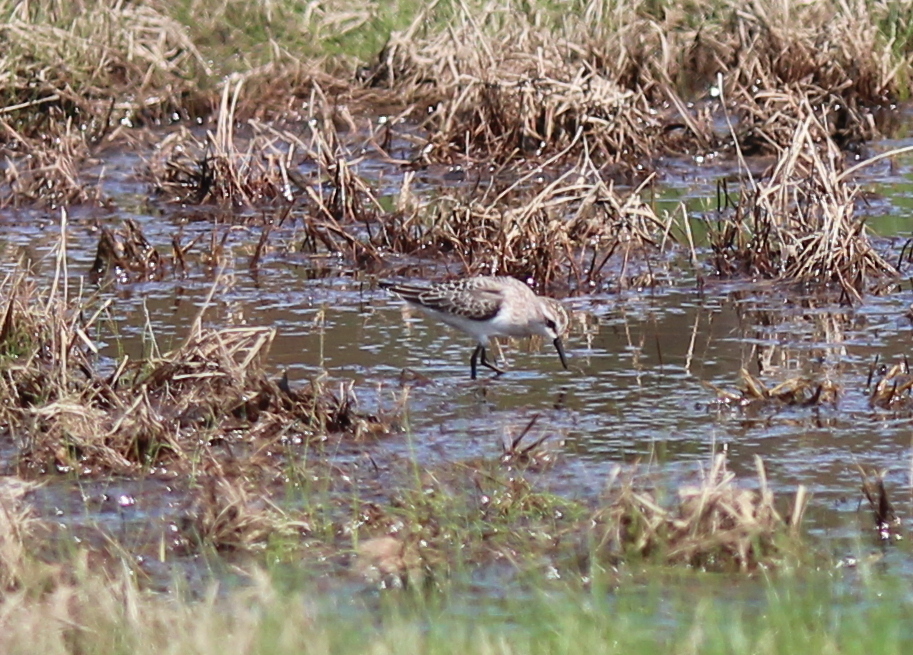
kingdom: Animalia
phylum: Chordata
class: Aves
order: Charadriiformes
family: Scolopacidae
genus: Calidris
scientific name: Calidris pusilla
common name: Semipalmated sandpiper
